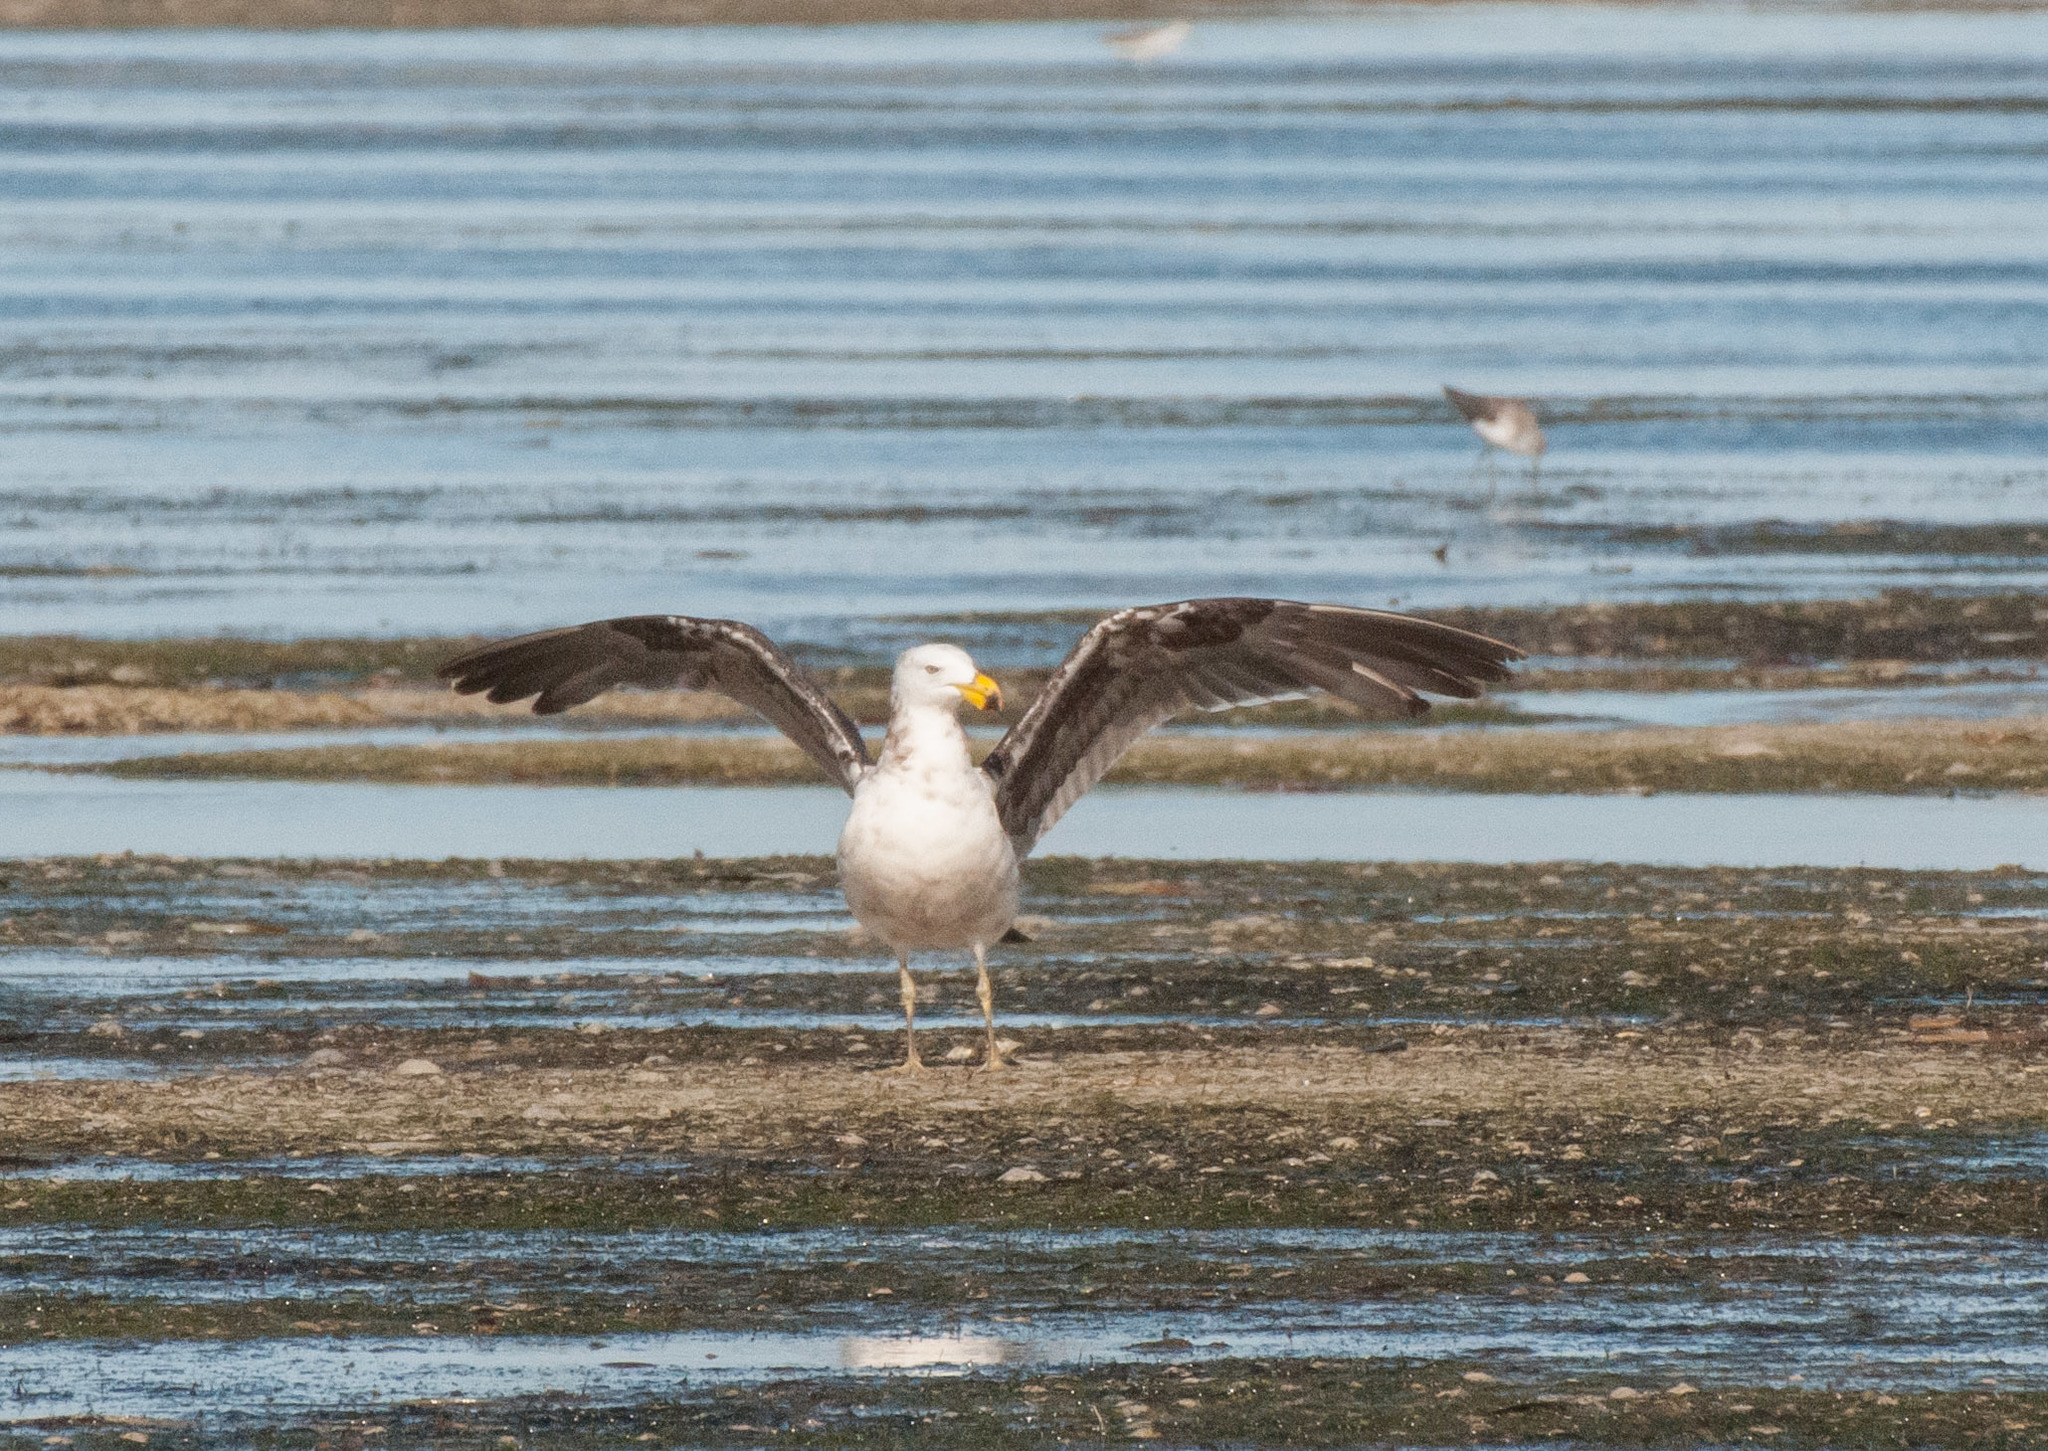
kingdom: Animalia
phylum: Chordata
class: Aves
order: Charadriiformes
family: Laridae
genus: Larus
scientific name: Larus pacificus
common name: Pacific gull
